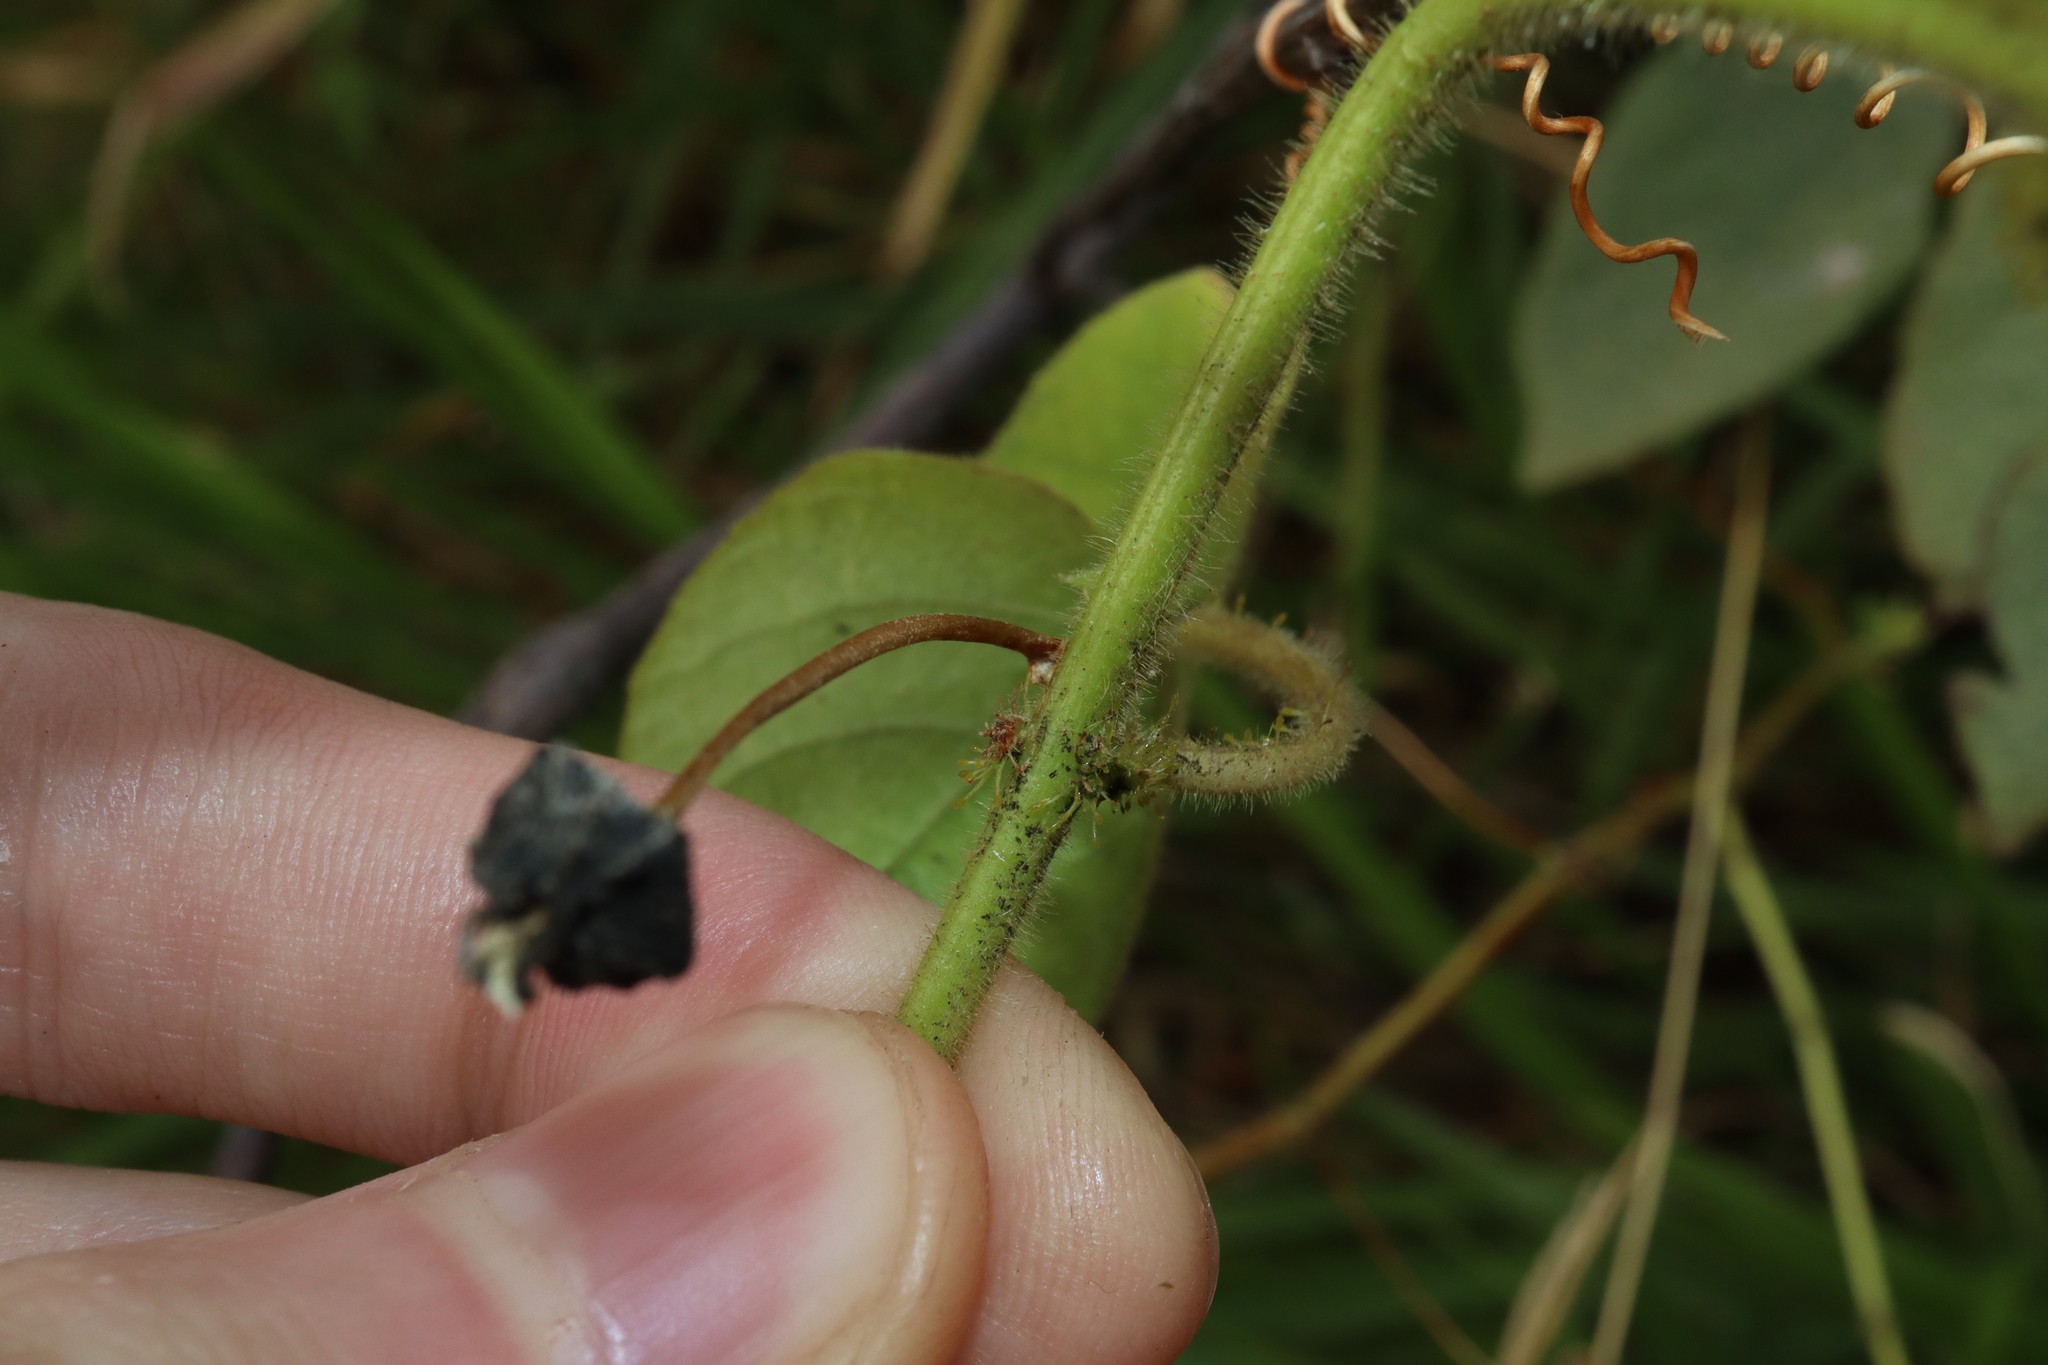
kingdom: Plantae
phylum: Tracheophyta
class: Magnoliopsida
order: Malpighiales
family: Passifloraceae
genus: Passiflora
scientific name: Passiflora vesicaria
